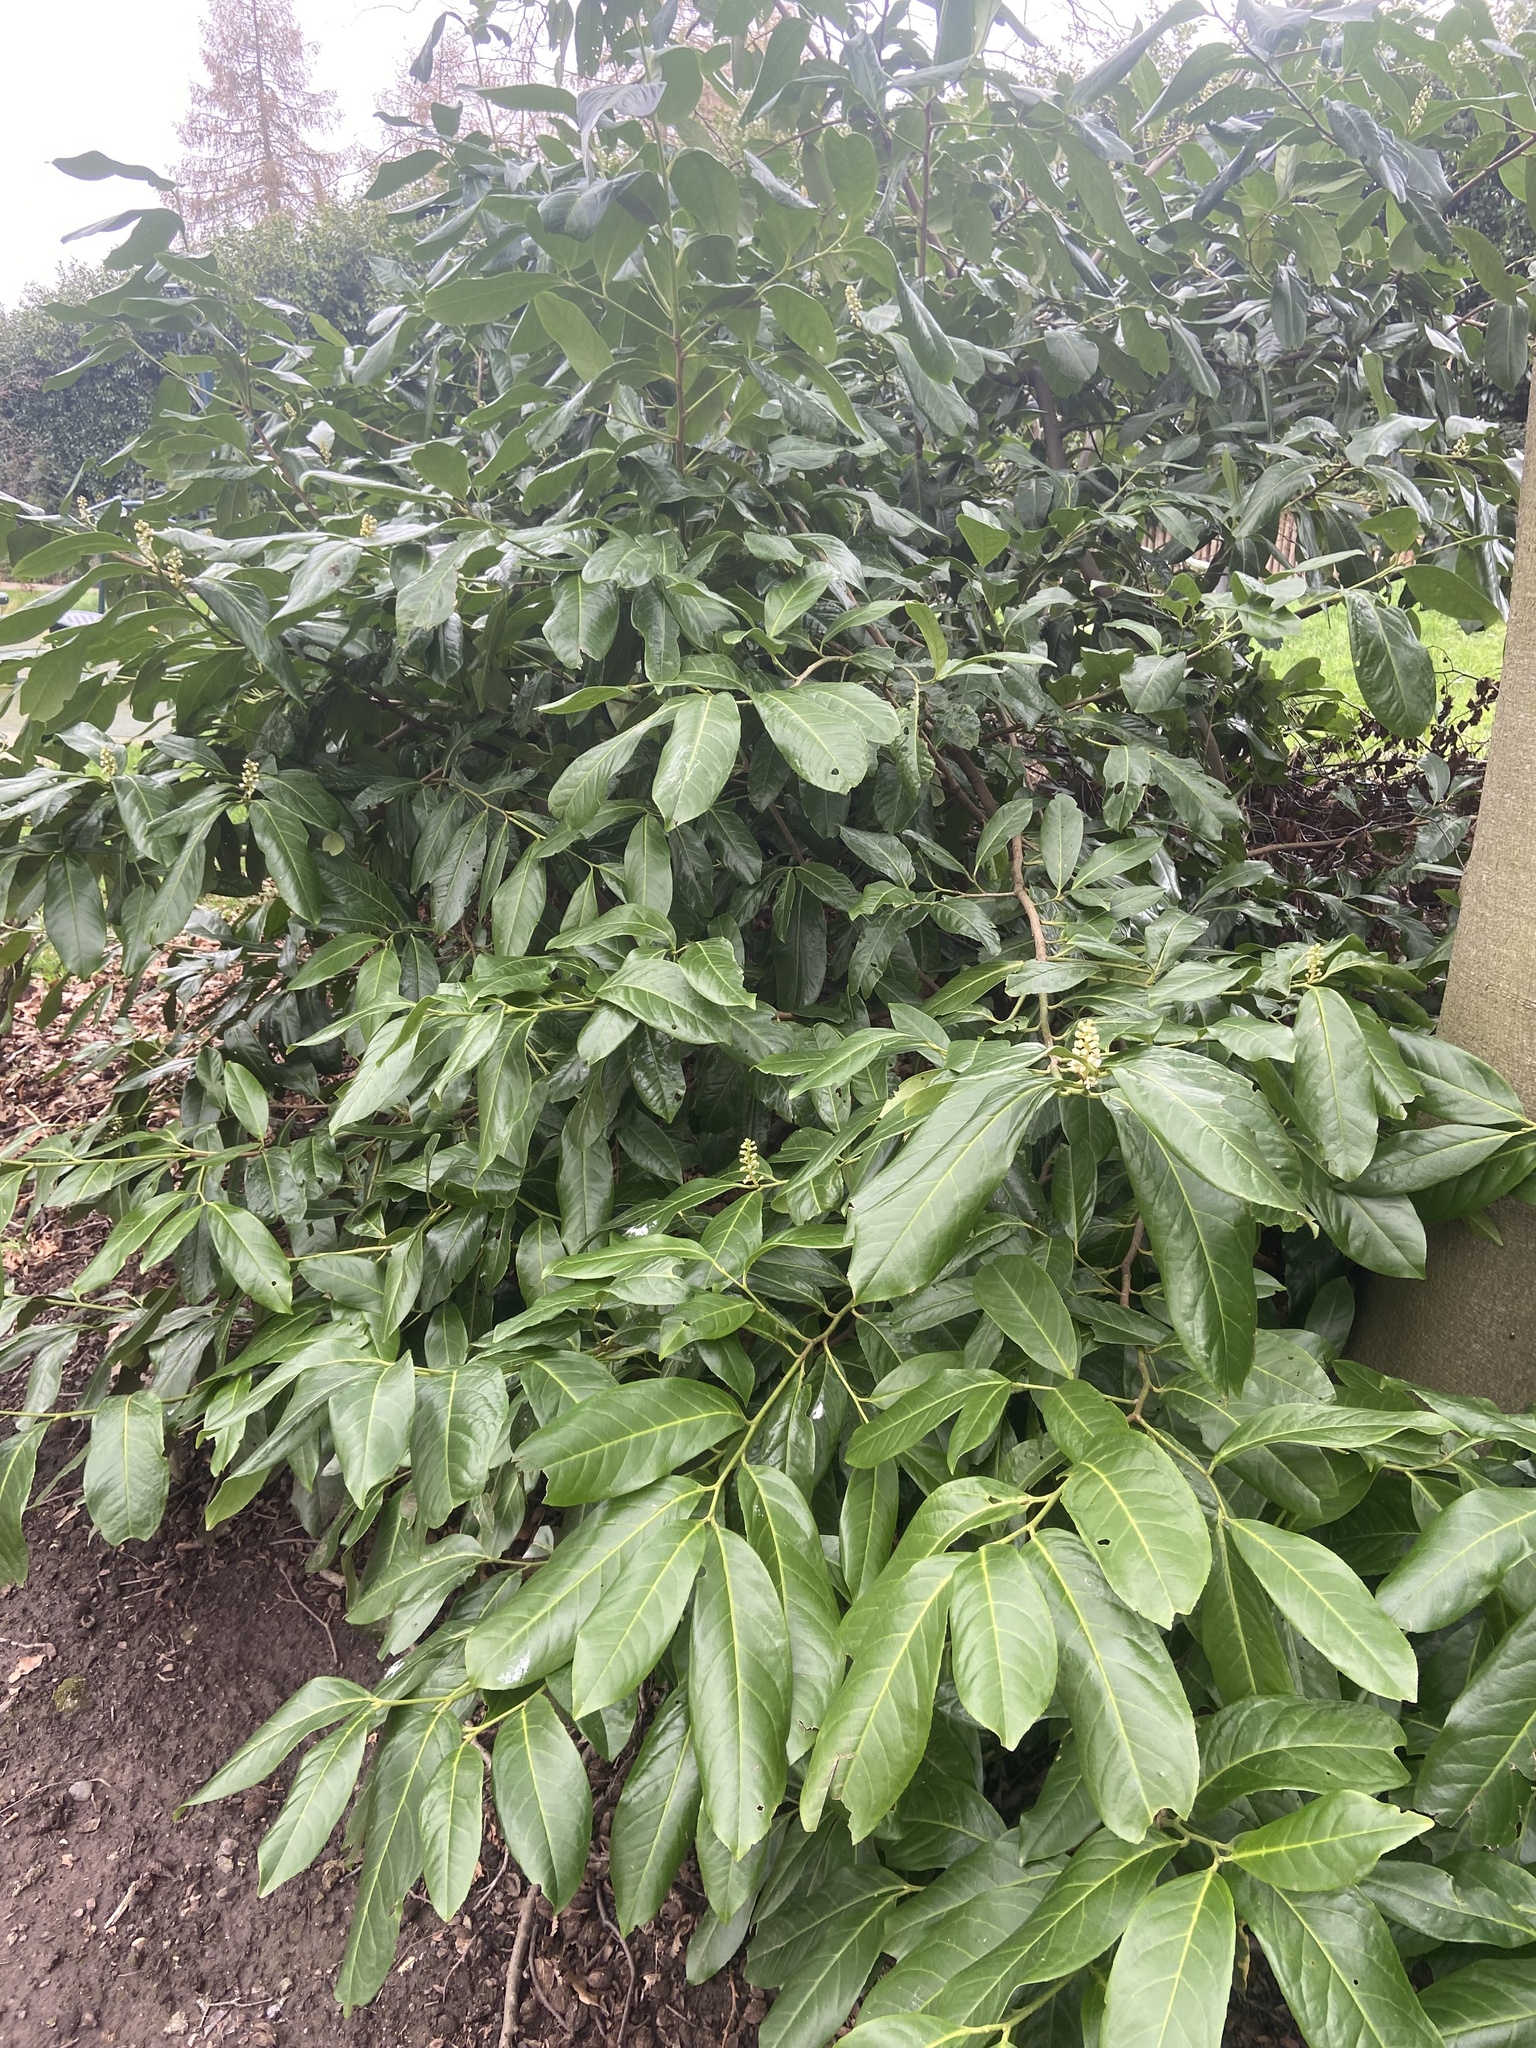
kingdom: Plantae
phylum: Tracheophyta
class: Magnoliopsida
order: Rosales
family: Rosaceae
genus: Prunus
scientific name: Prunus laurocerasus
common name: Cherry laurel
